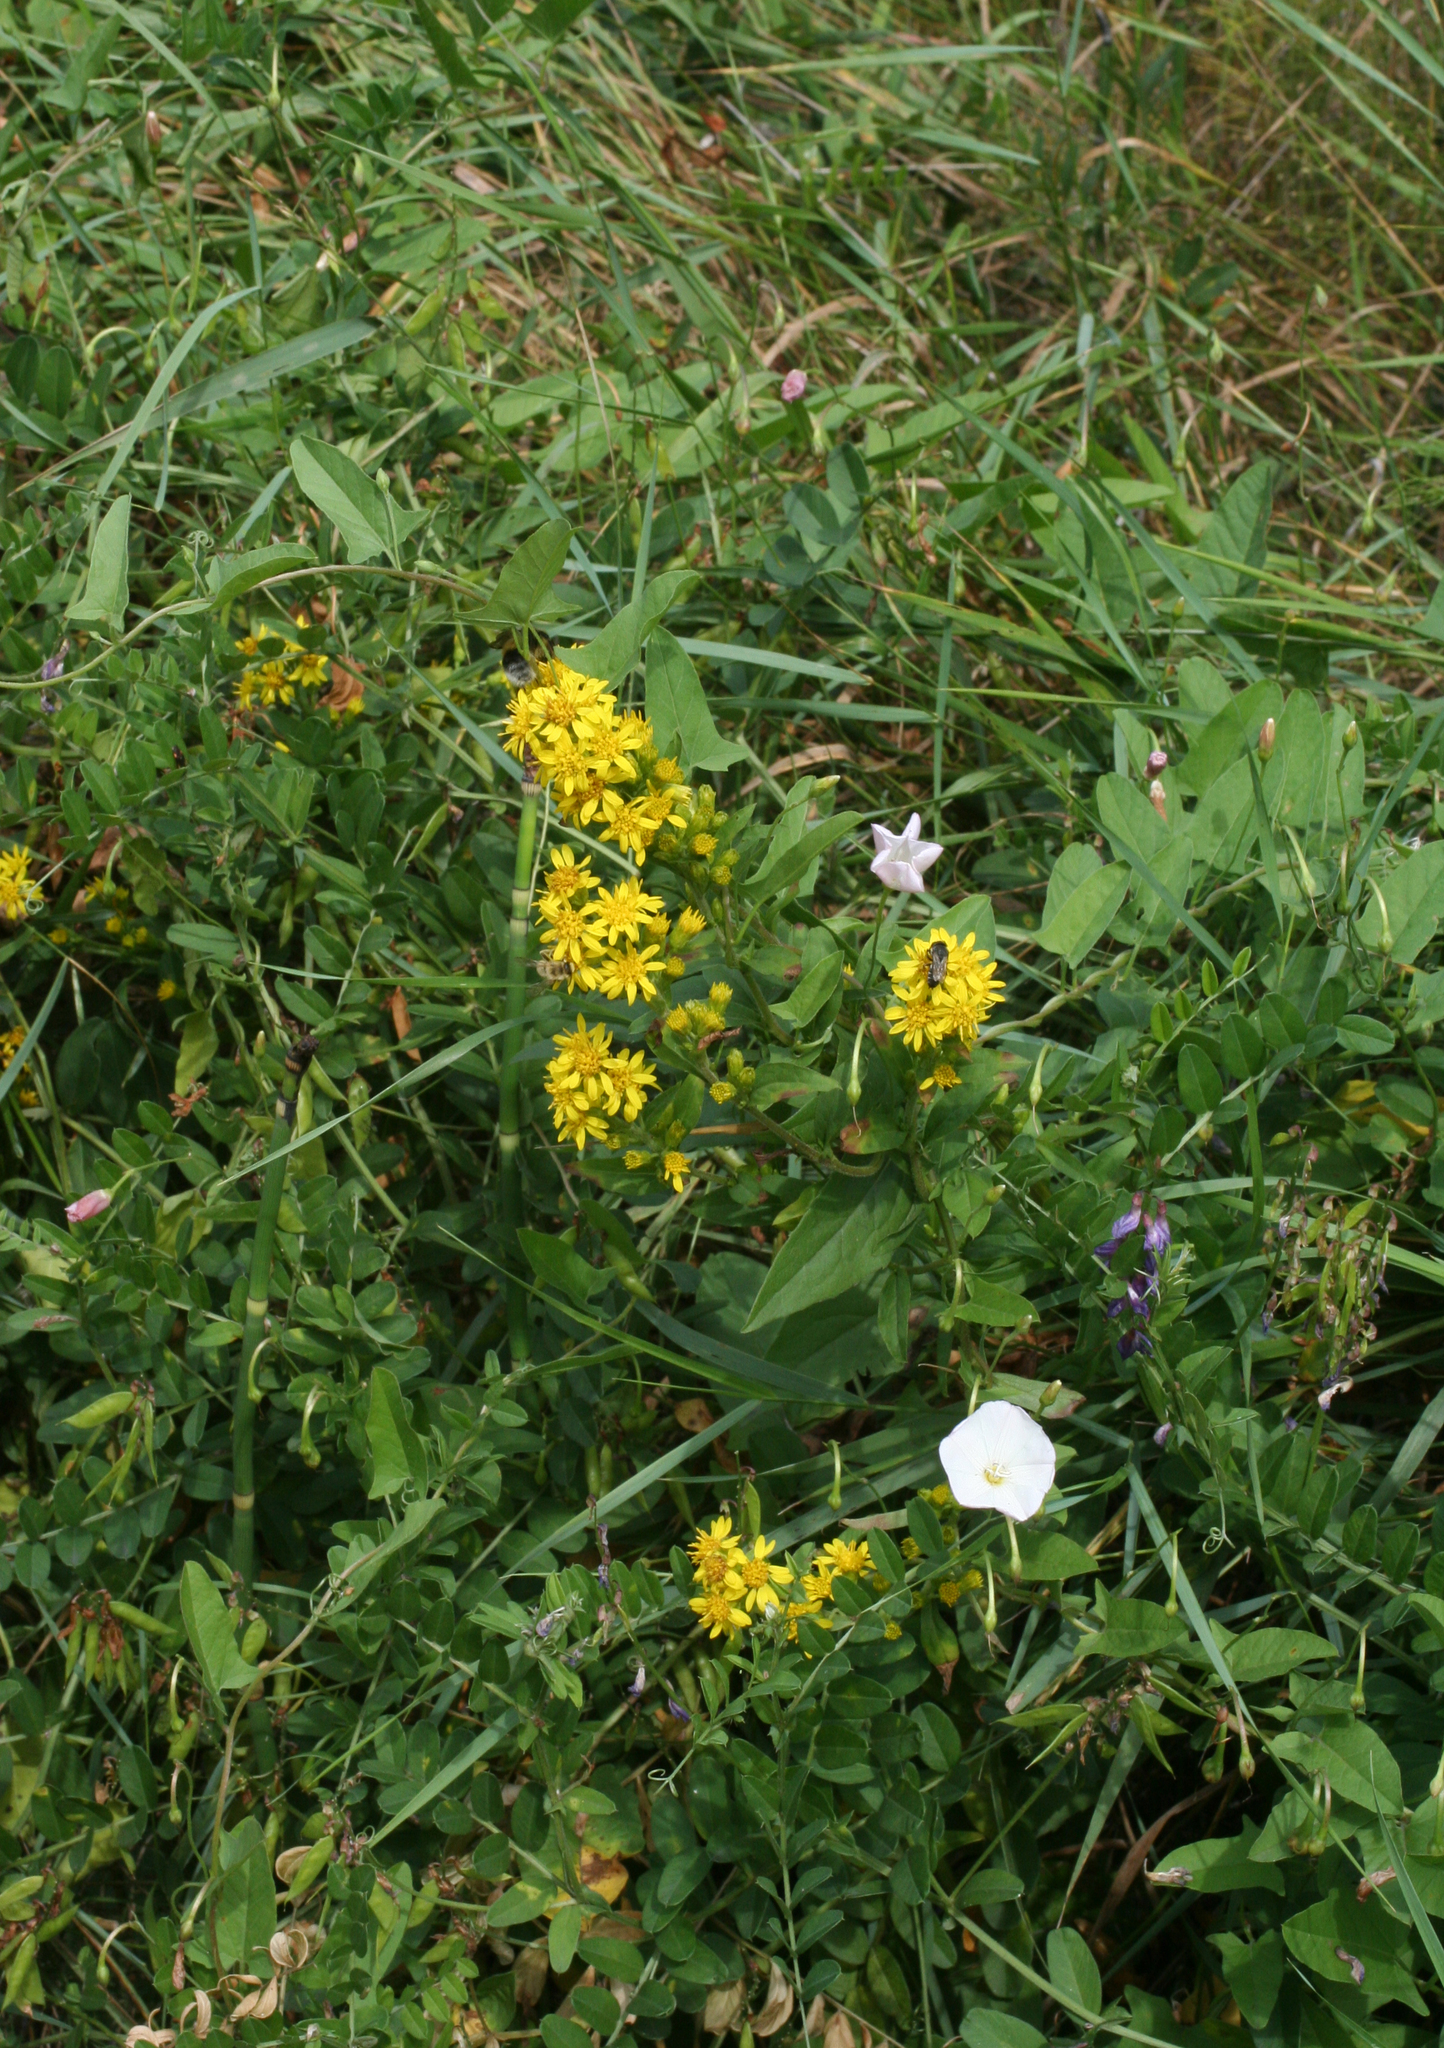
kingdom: Plantae
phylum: Tracheophyta
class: Magnoliopsida
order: Asterales
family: Asteraceae
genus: Solidago
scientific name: Solidago virgaurea
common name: Goldenrod
